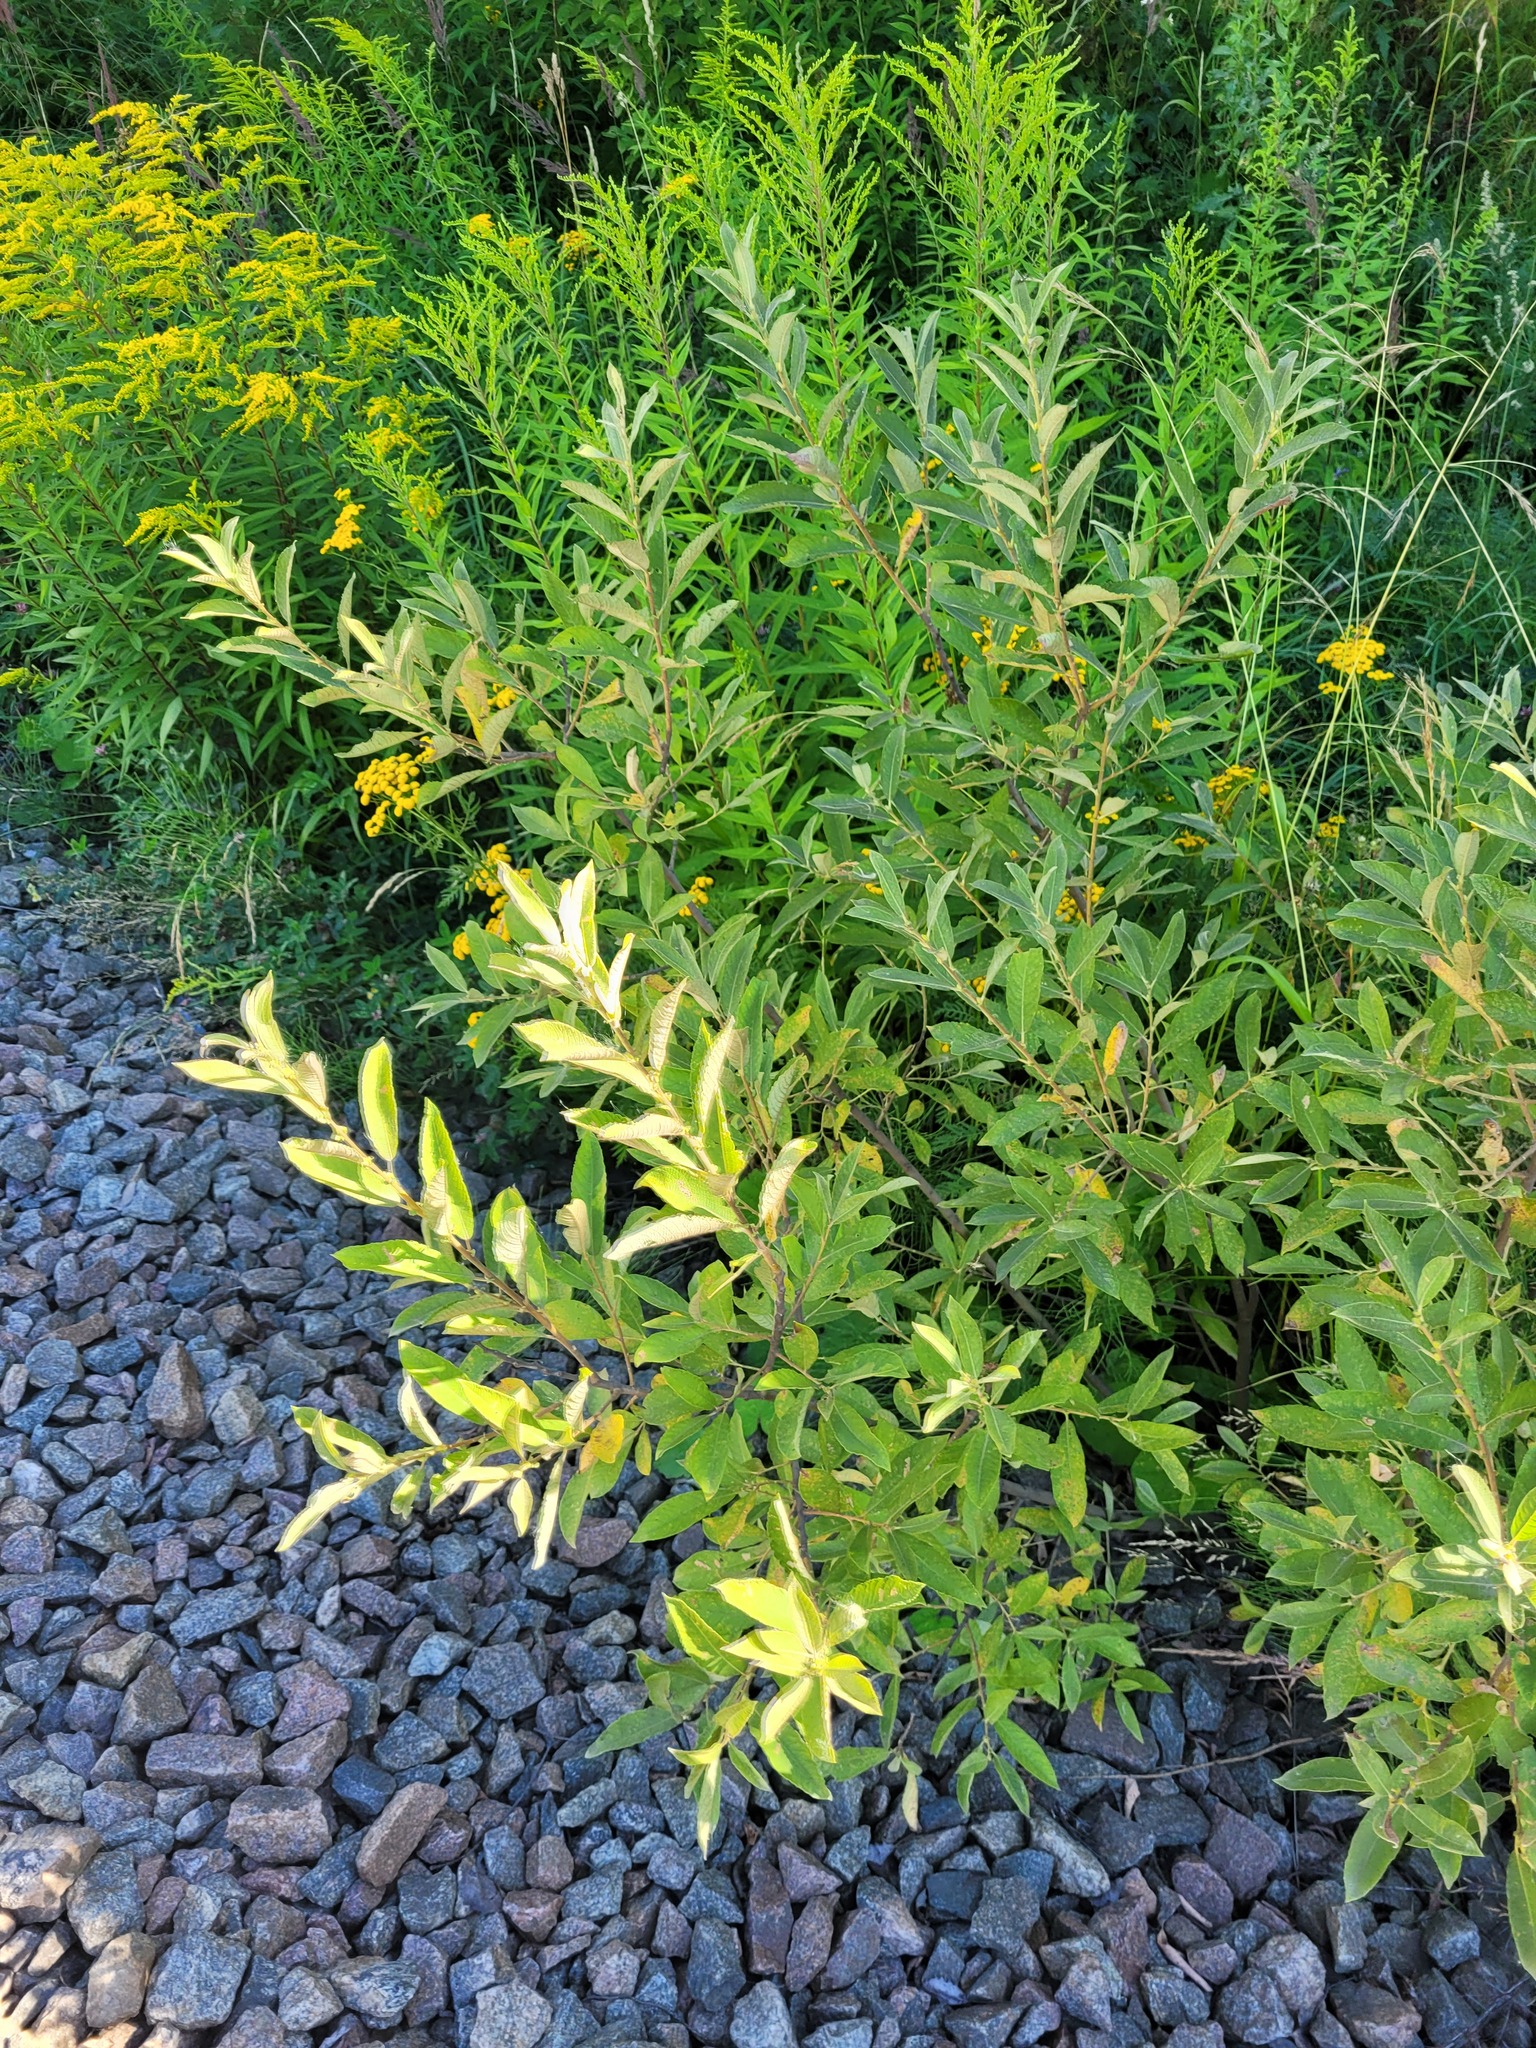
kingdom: Plantae
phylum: Tracheophyta
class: Magnoliopsida
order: Malpighiales
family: Salicaceae
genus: Salix
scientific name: Salix cinerea
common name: Common sallow
